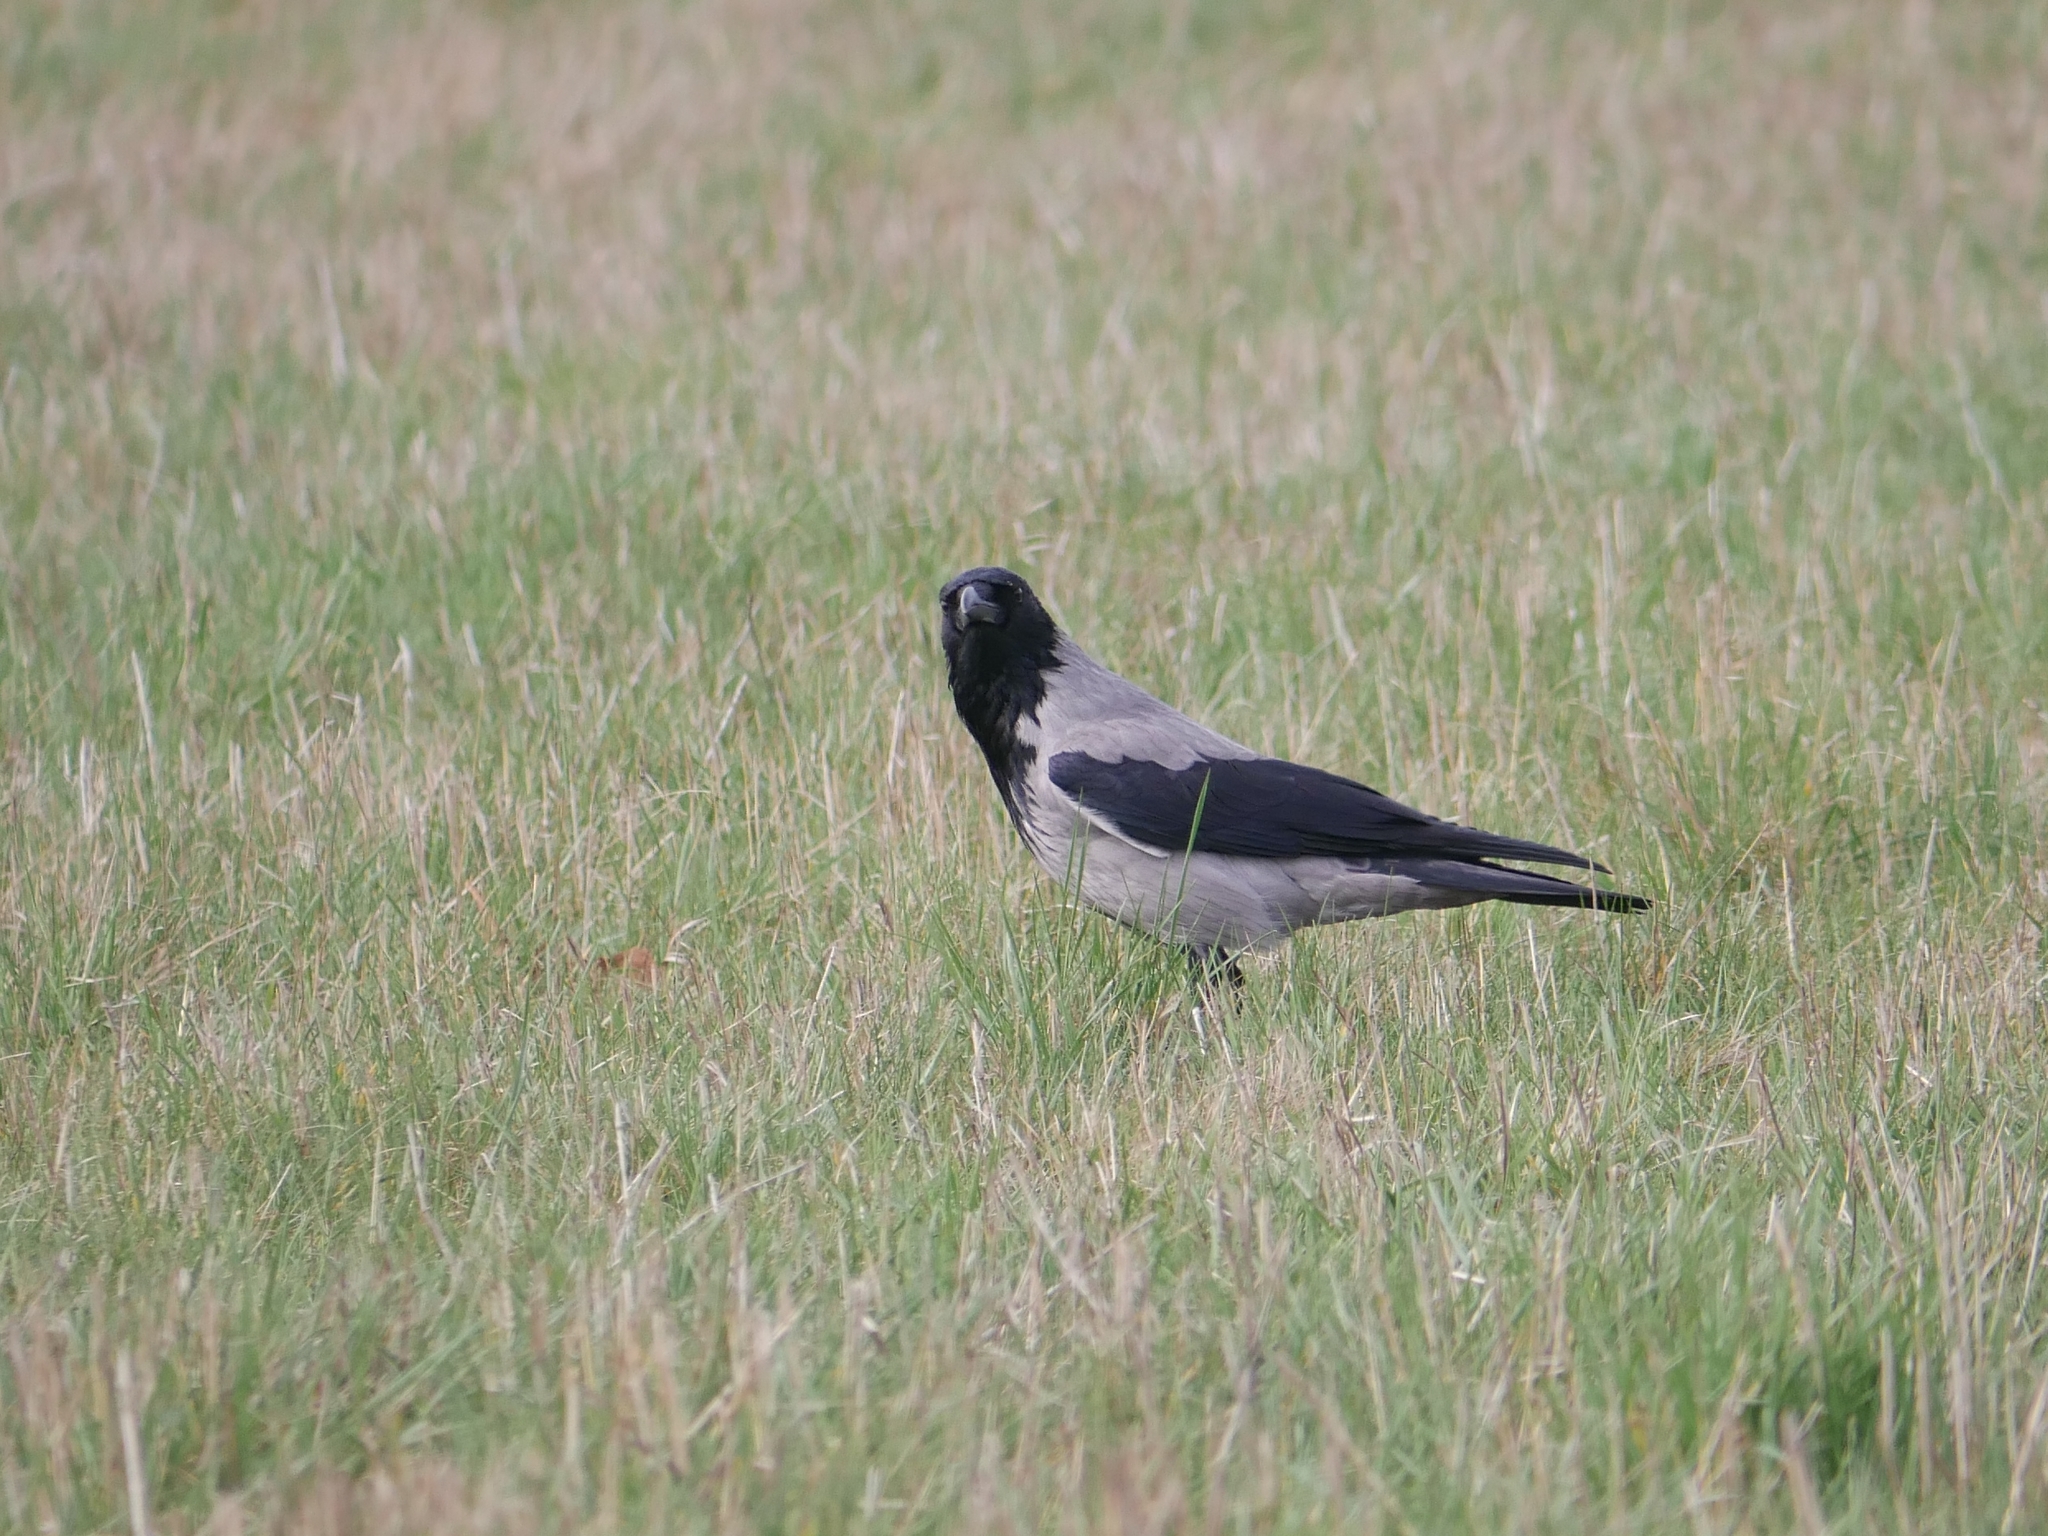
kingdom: Animalia
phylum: Chordata
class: Aves
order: Passeriformes
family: Corvidae
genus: Corvus
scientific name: Corvus cornix
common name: Hooded crow
